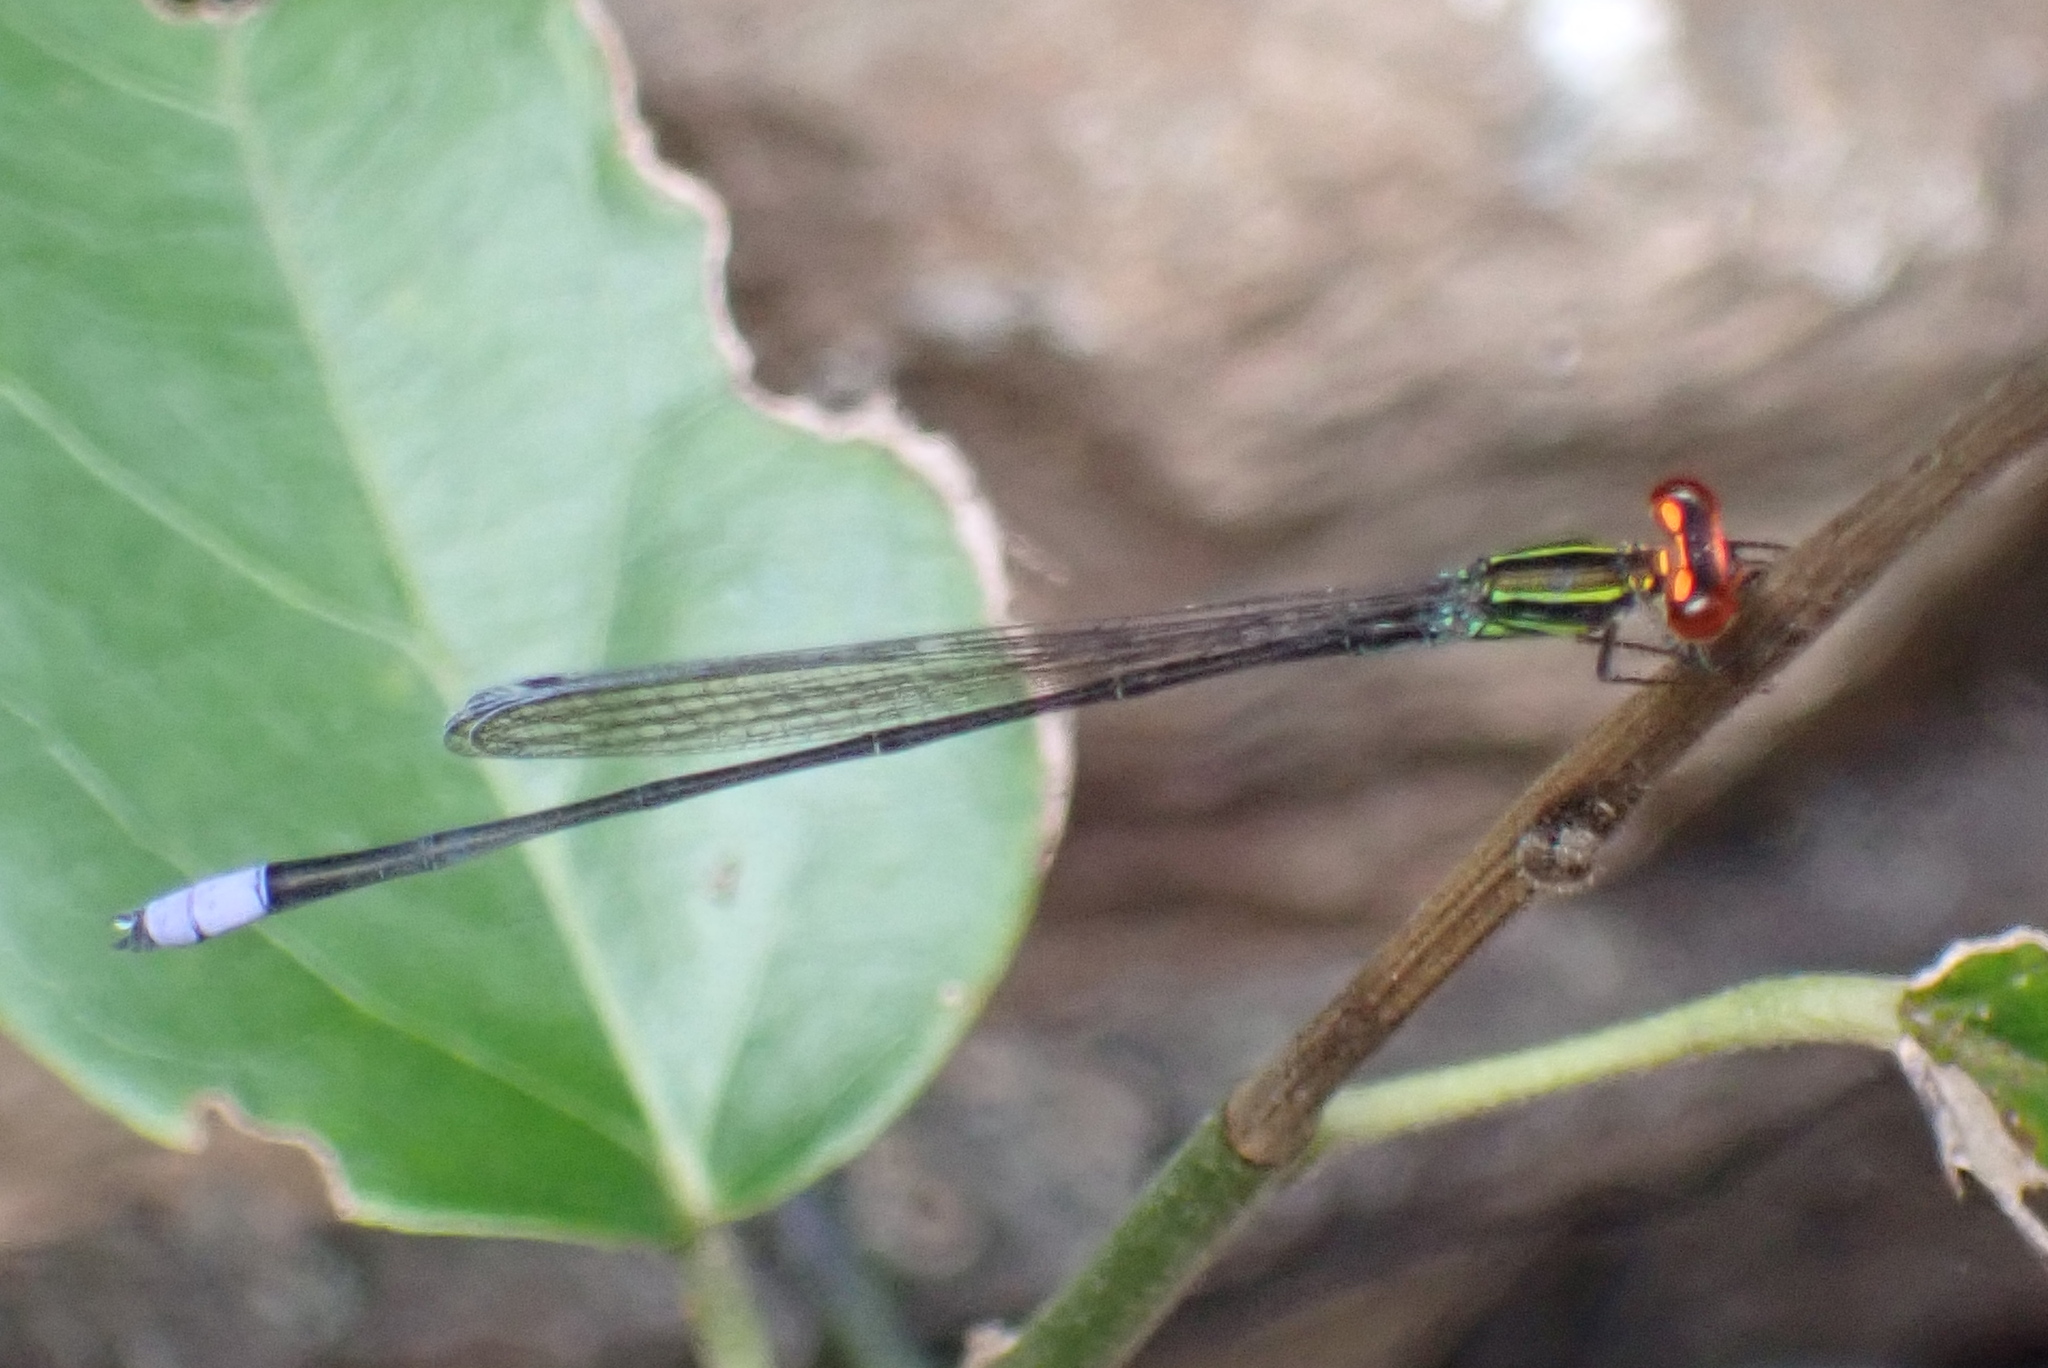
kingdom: Animalia
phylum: Arthropoda
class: Insecta
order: Odonata
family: Coenagrionidae
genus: Pseudagrion
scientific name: Pseudagrion hageni
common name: Painted sprite
